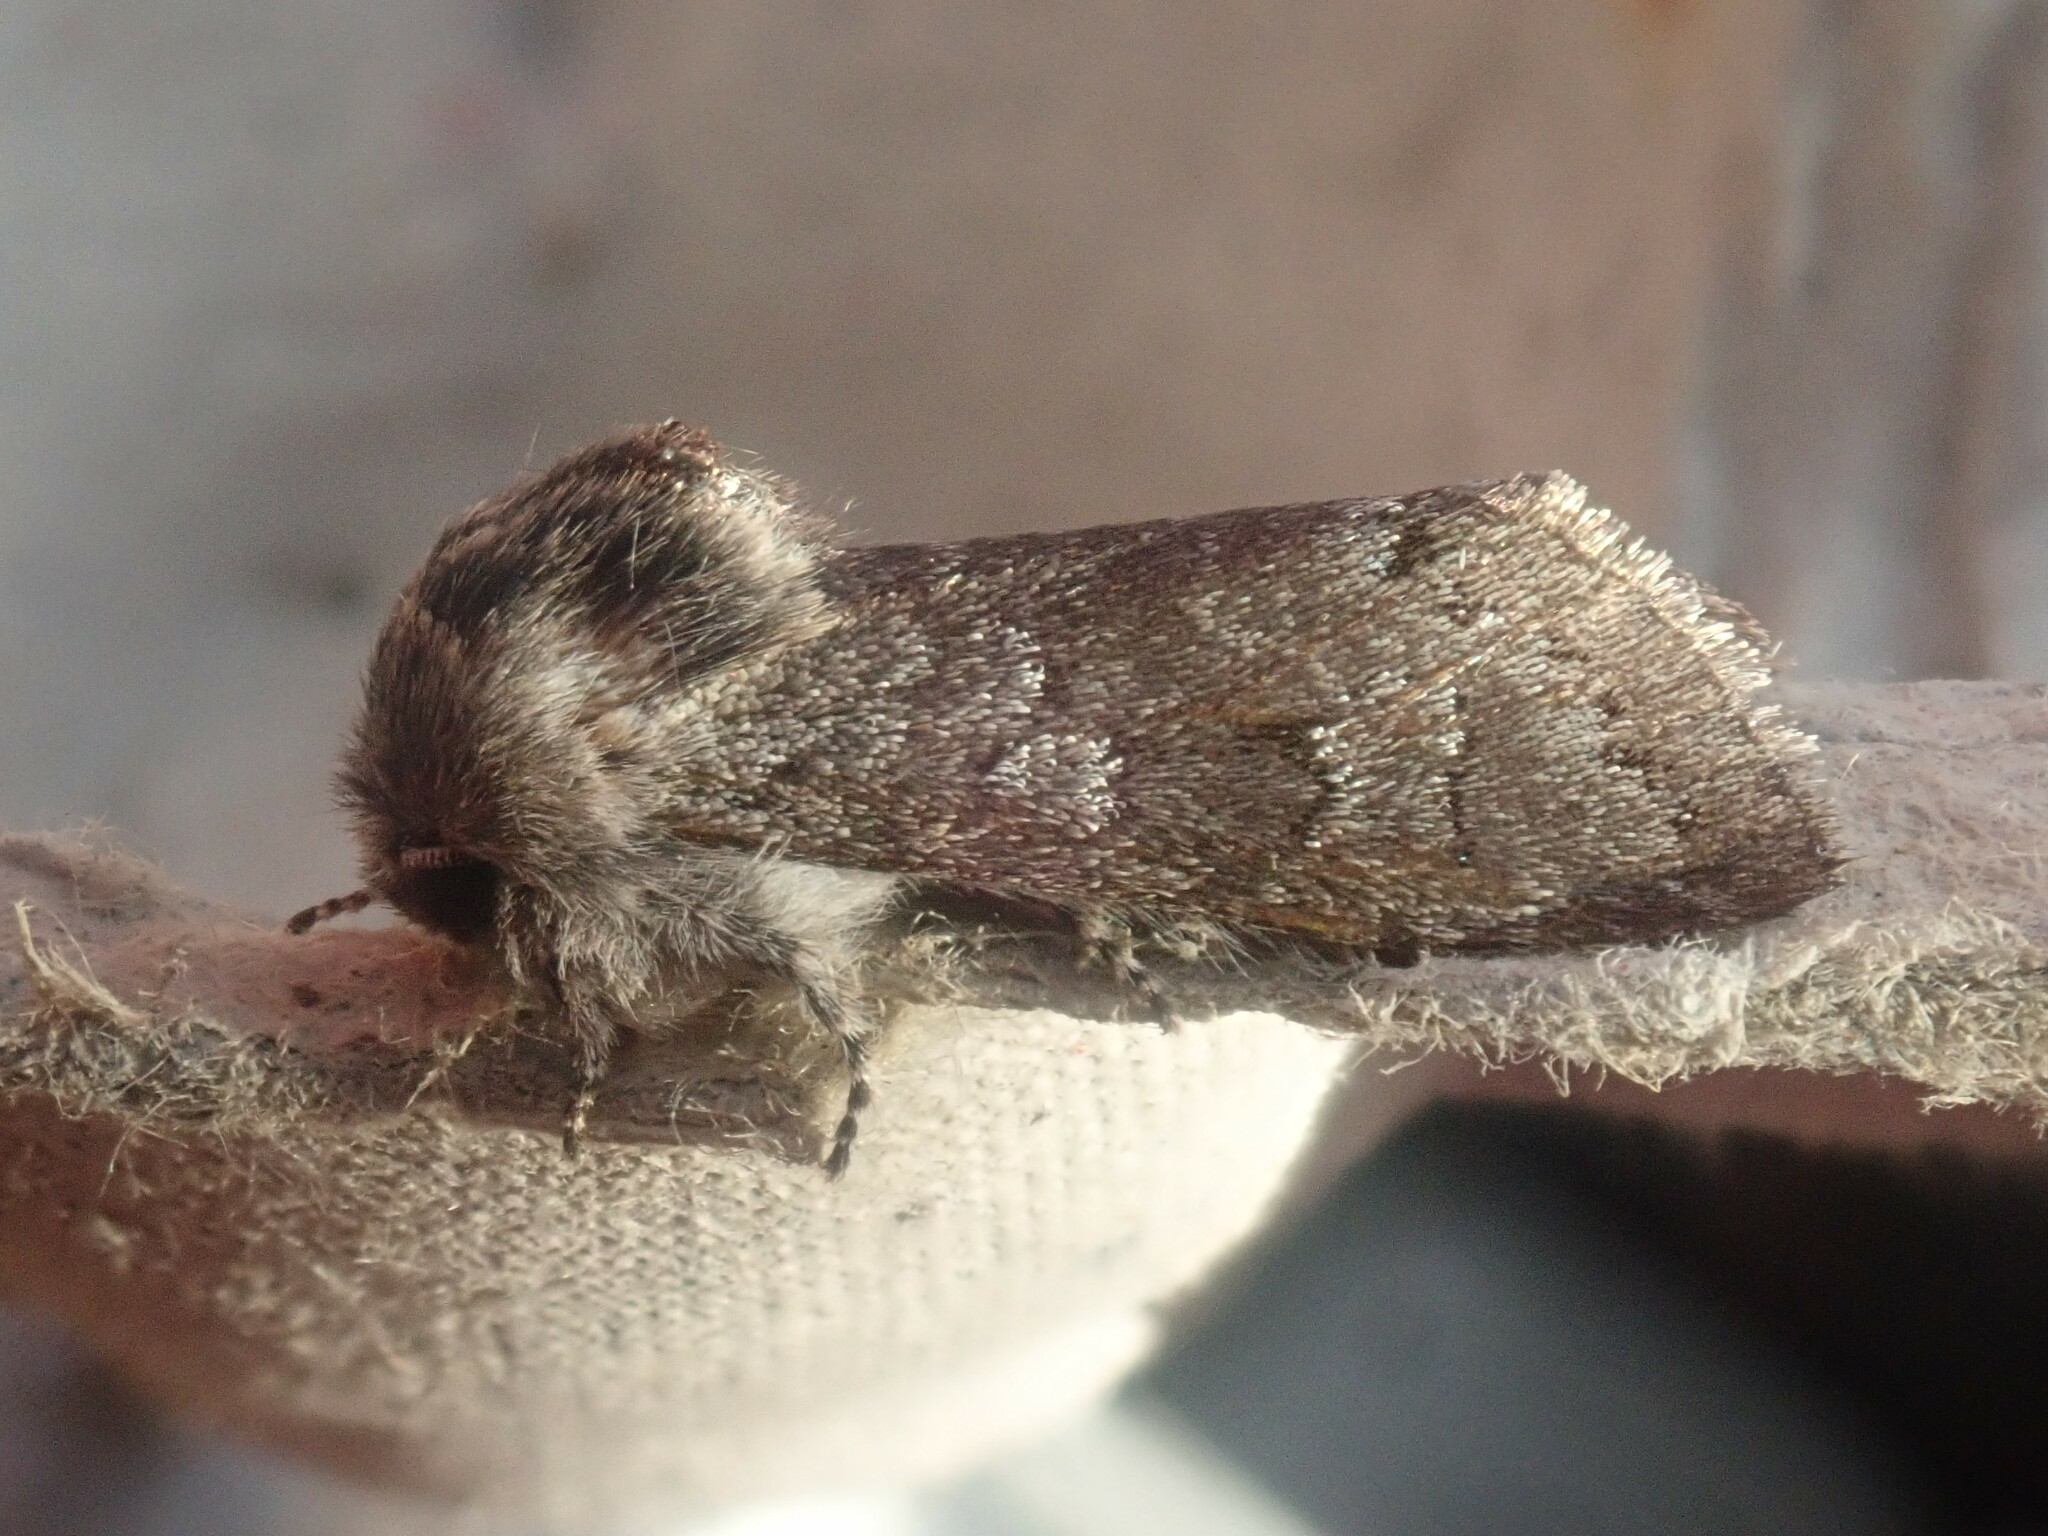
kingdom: Animalia
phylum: Arthropoda
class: Insecta
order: Lepidoptera
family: Noctuidae
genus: Psaphida
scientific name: Psaphida rolandi
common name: Roland's sallow
